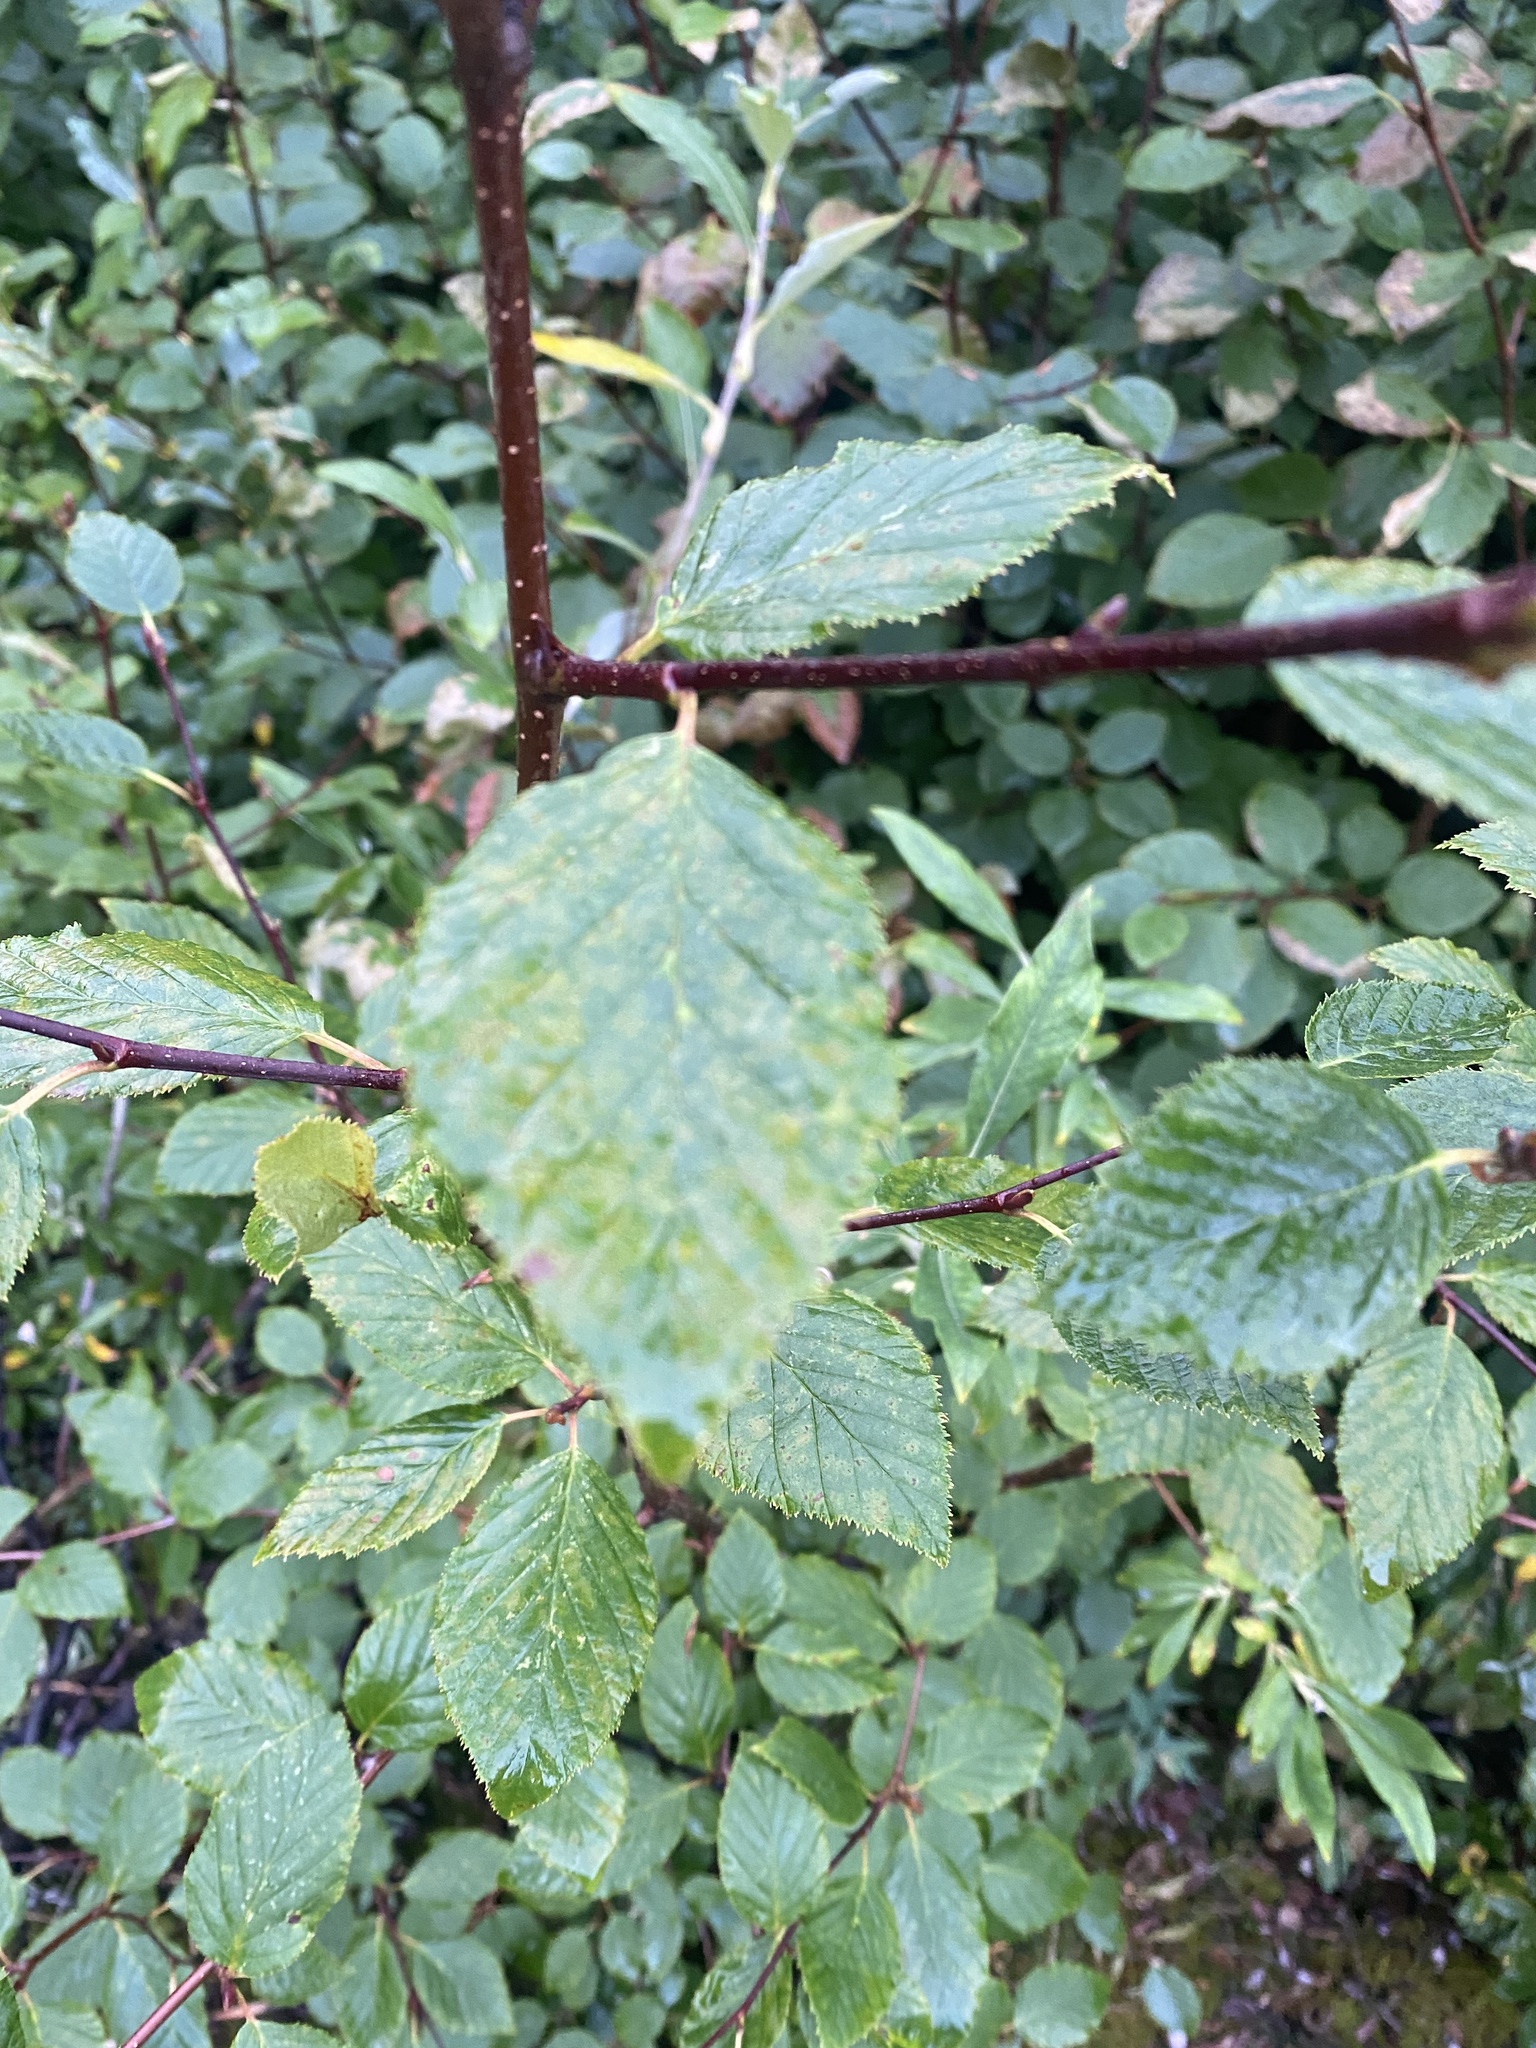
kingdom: Plantae
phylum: Tracheophyta
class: Magnoliopsida
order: Fagales
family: Betulaceae
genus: Alnus
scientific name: Alnus alnobetula
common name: Green alder
